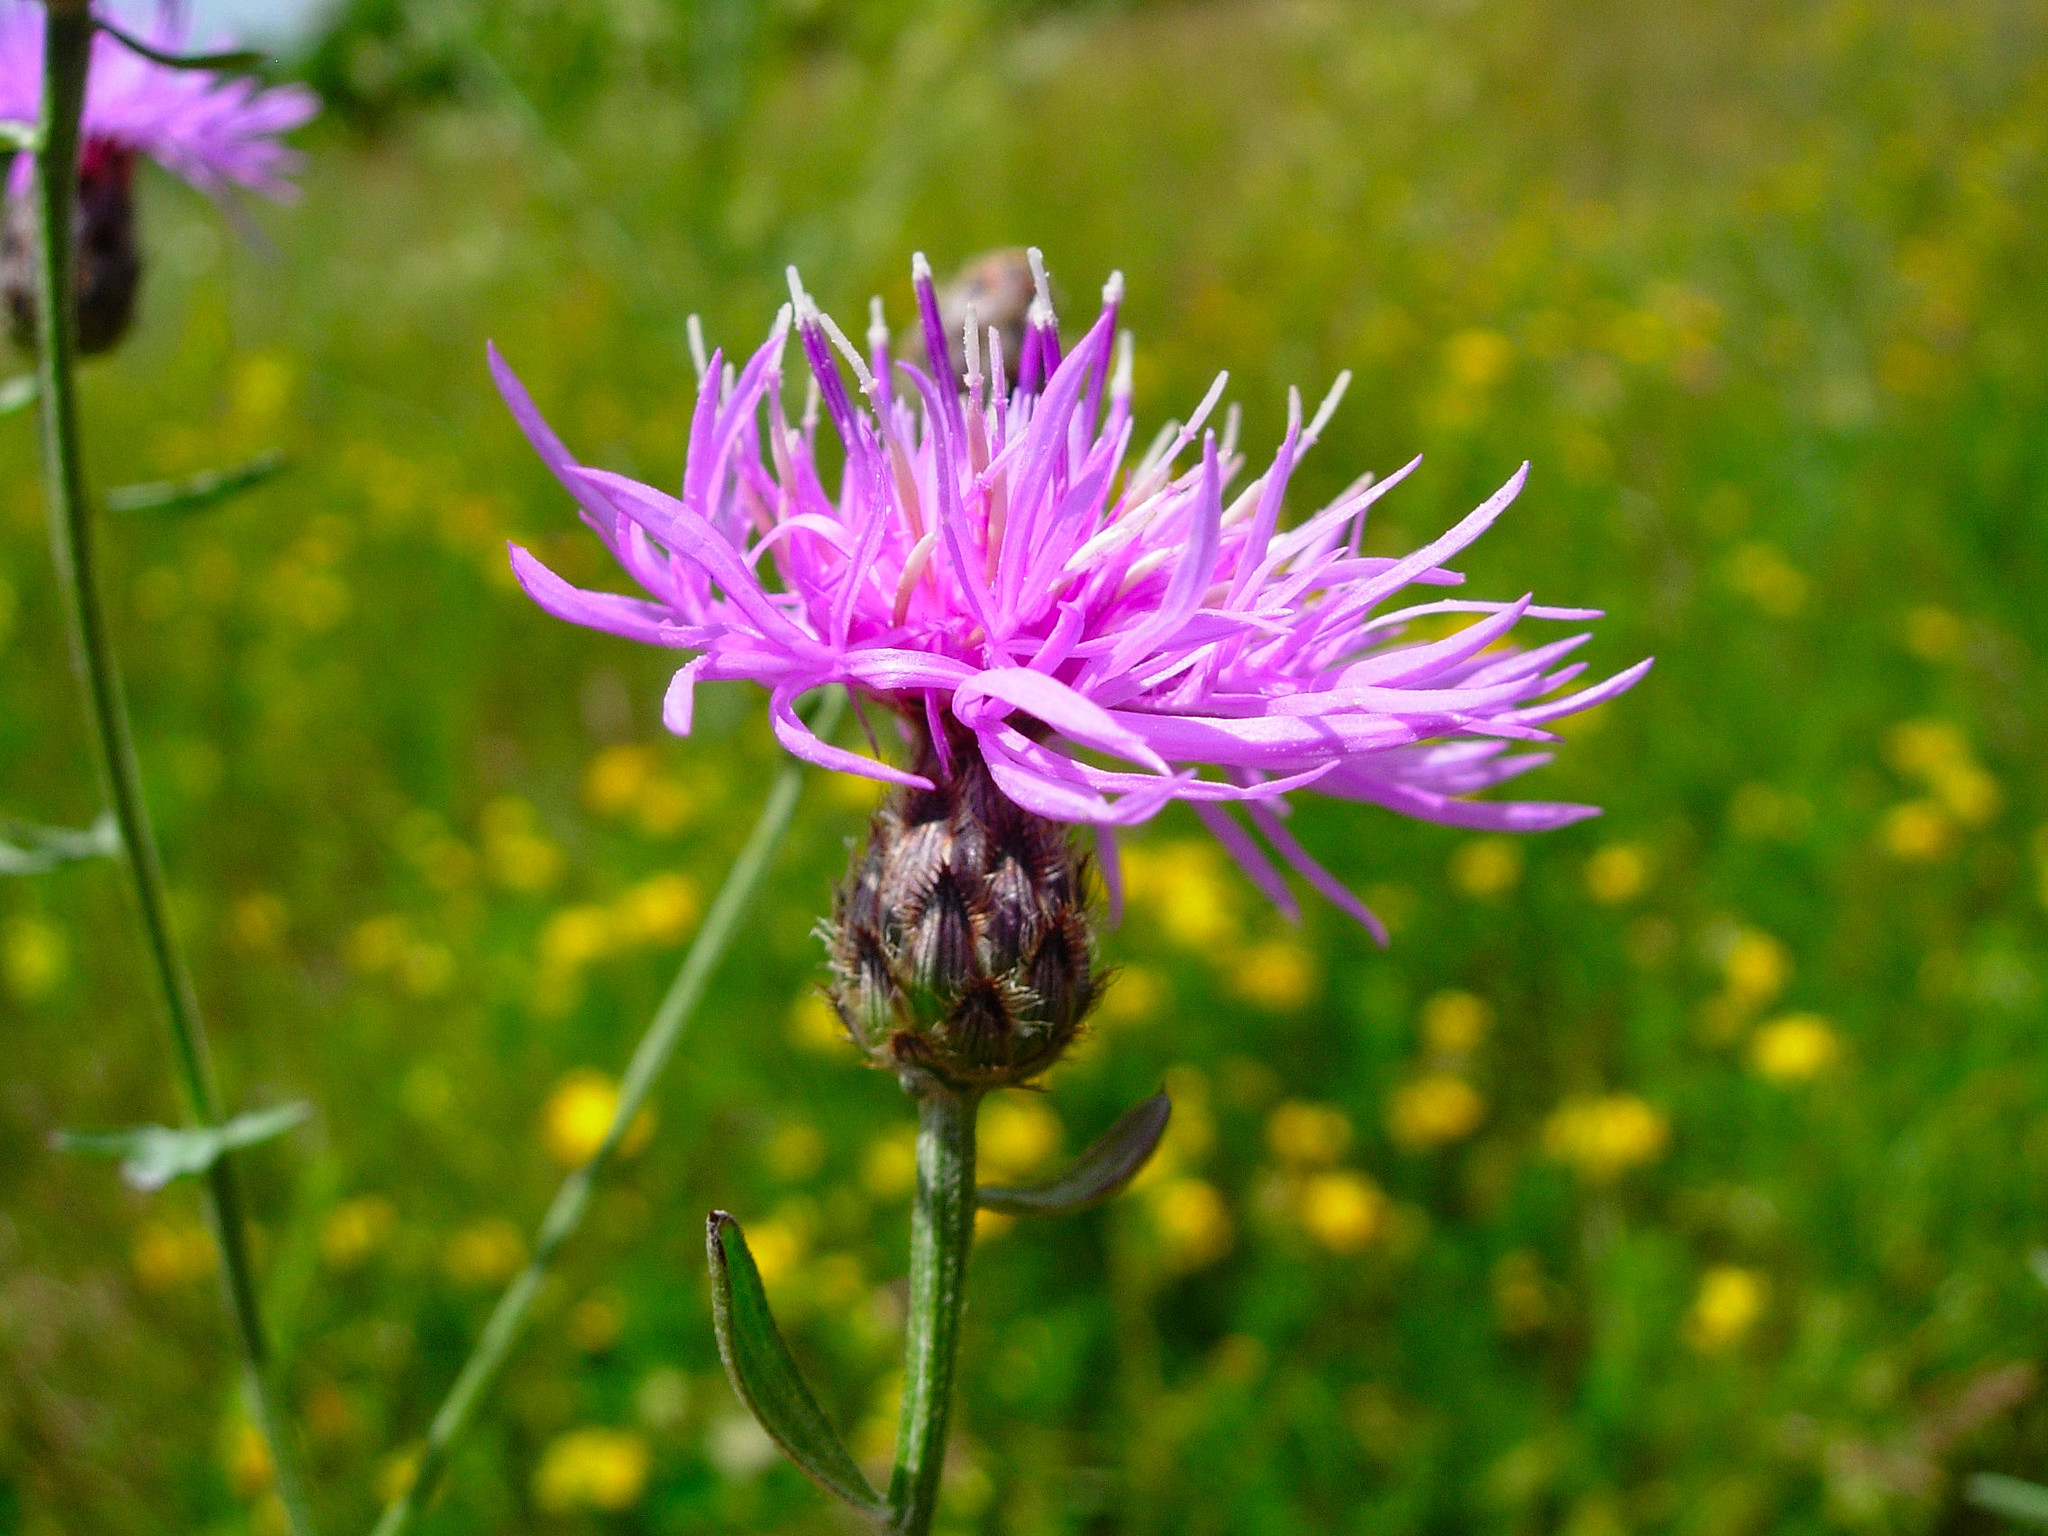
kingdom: Plantae
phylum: Tracheophyta
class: Magnoliopsida
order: Asterales
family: Asteraceae
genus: Centaurea
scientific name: Centaurea stoebe
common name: Spotted knapweed
